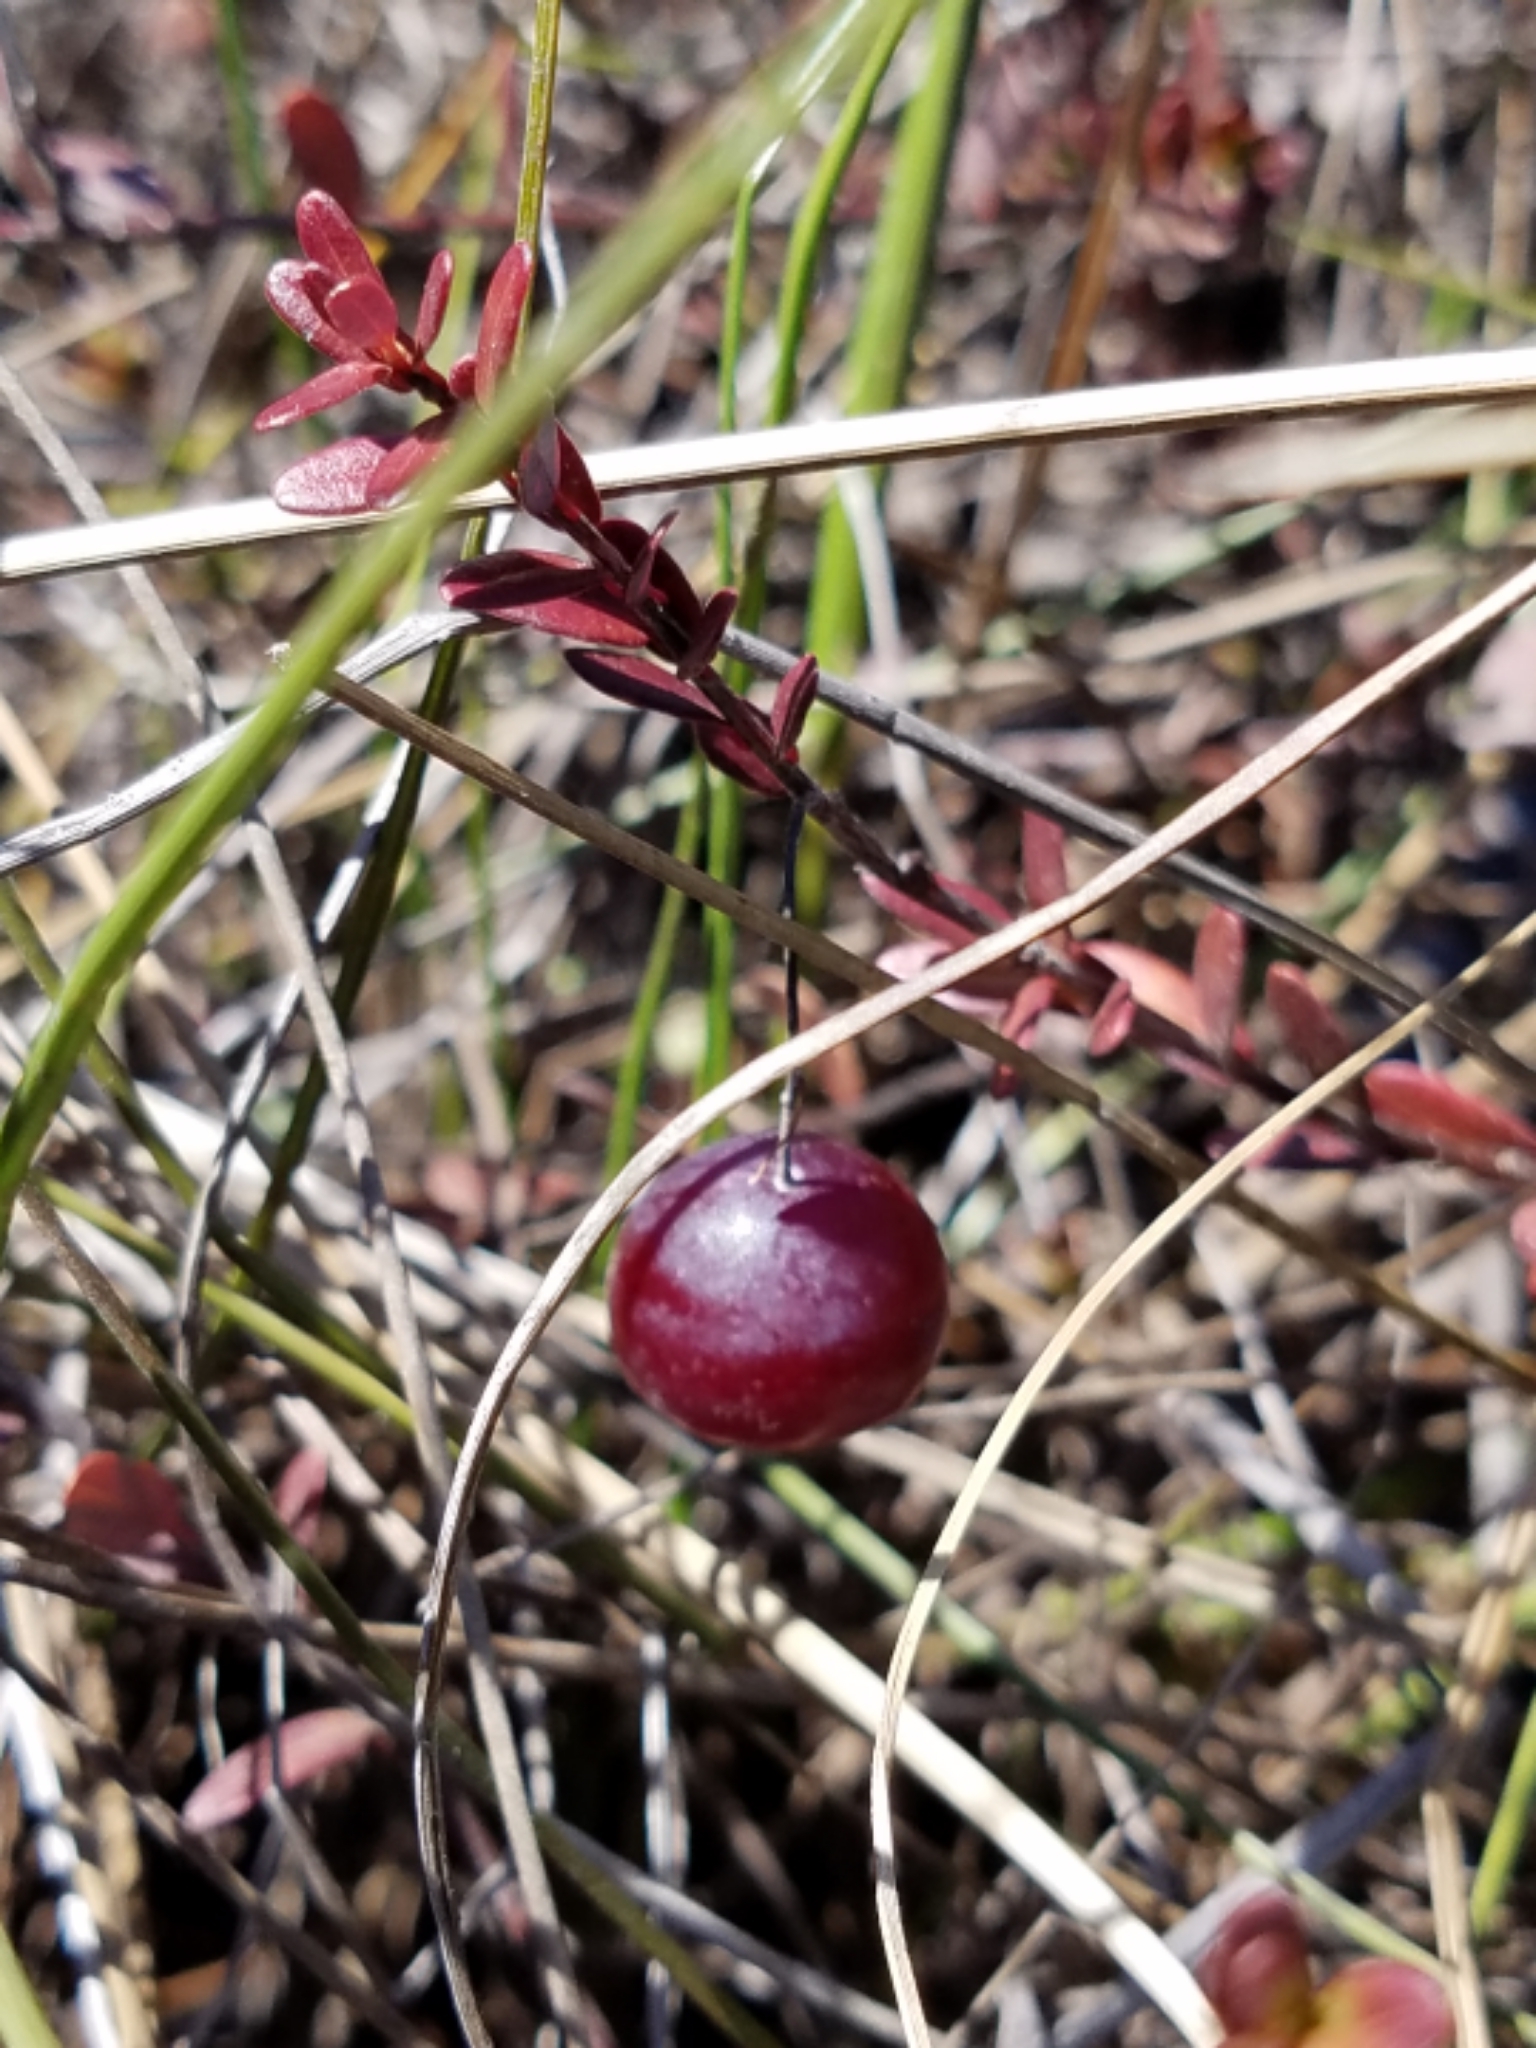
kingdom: Plantae
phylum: Tracheophyta
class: Magnoliopsida
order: Ericales
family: Ericaceae
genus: Vaccinium
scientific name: Vaccinium macrocarpon
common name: American cranberry
